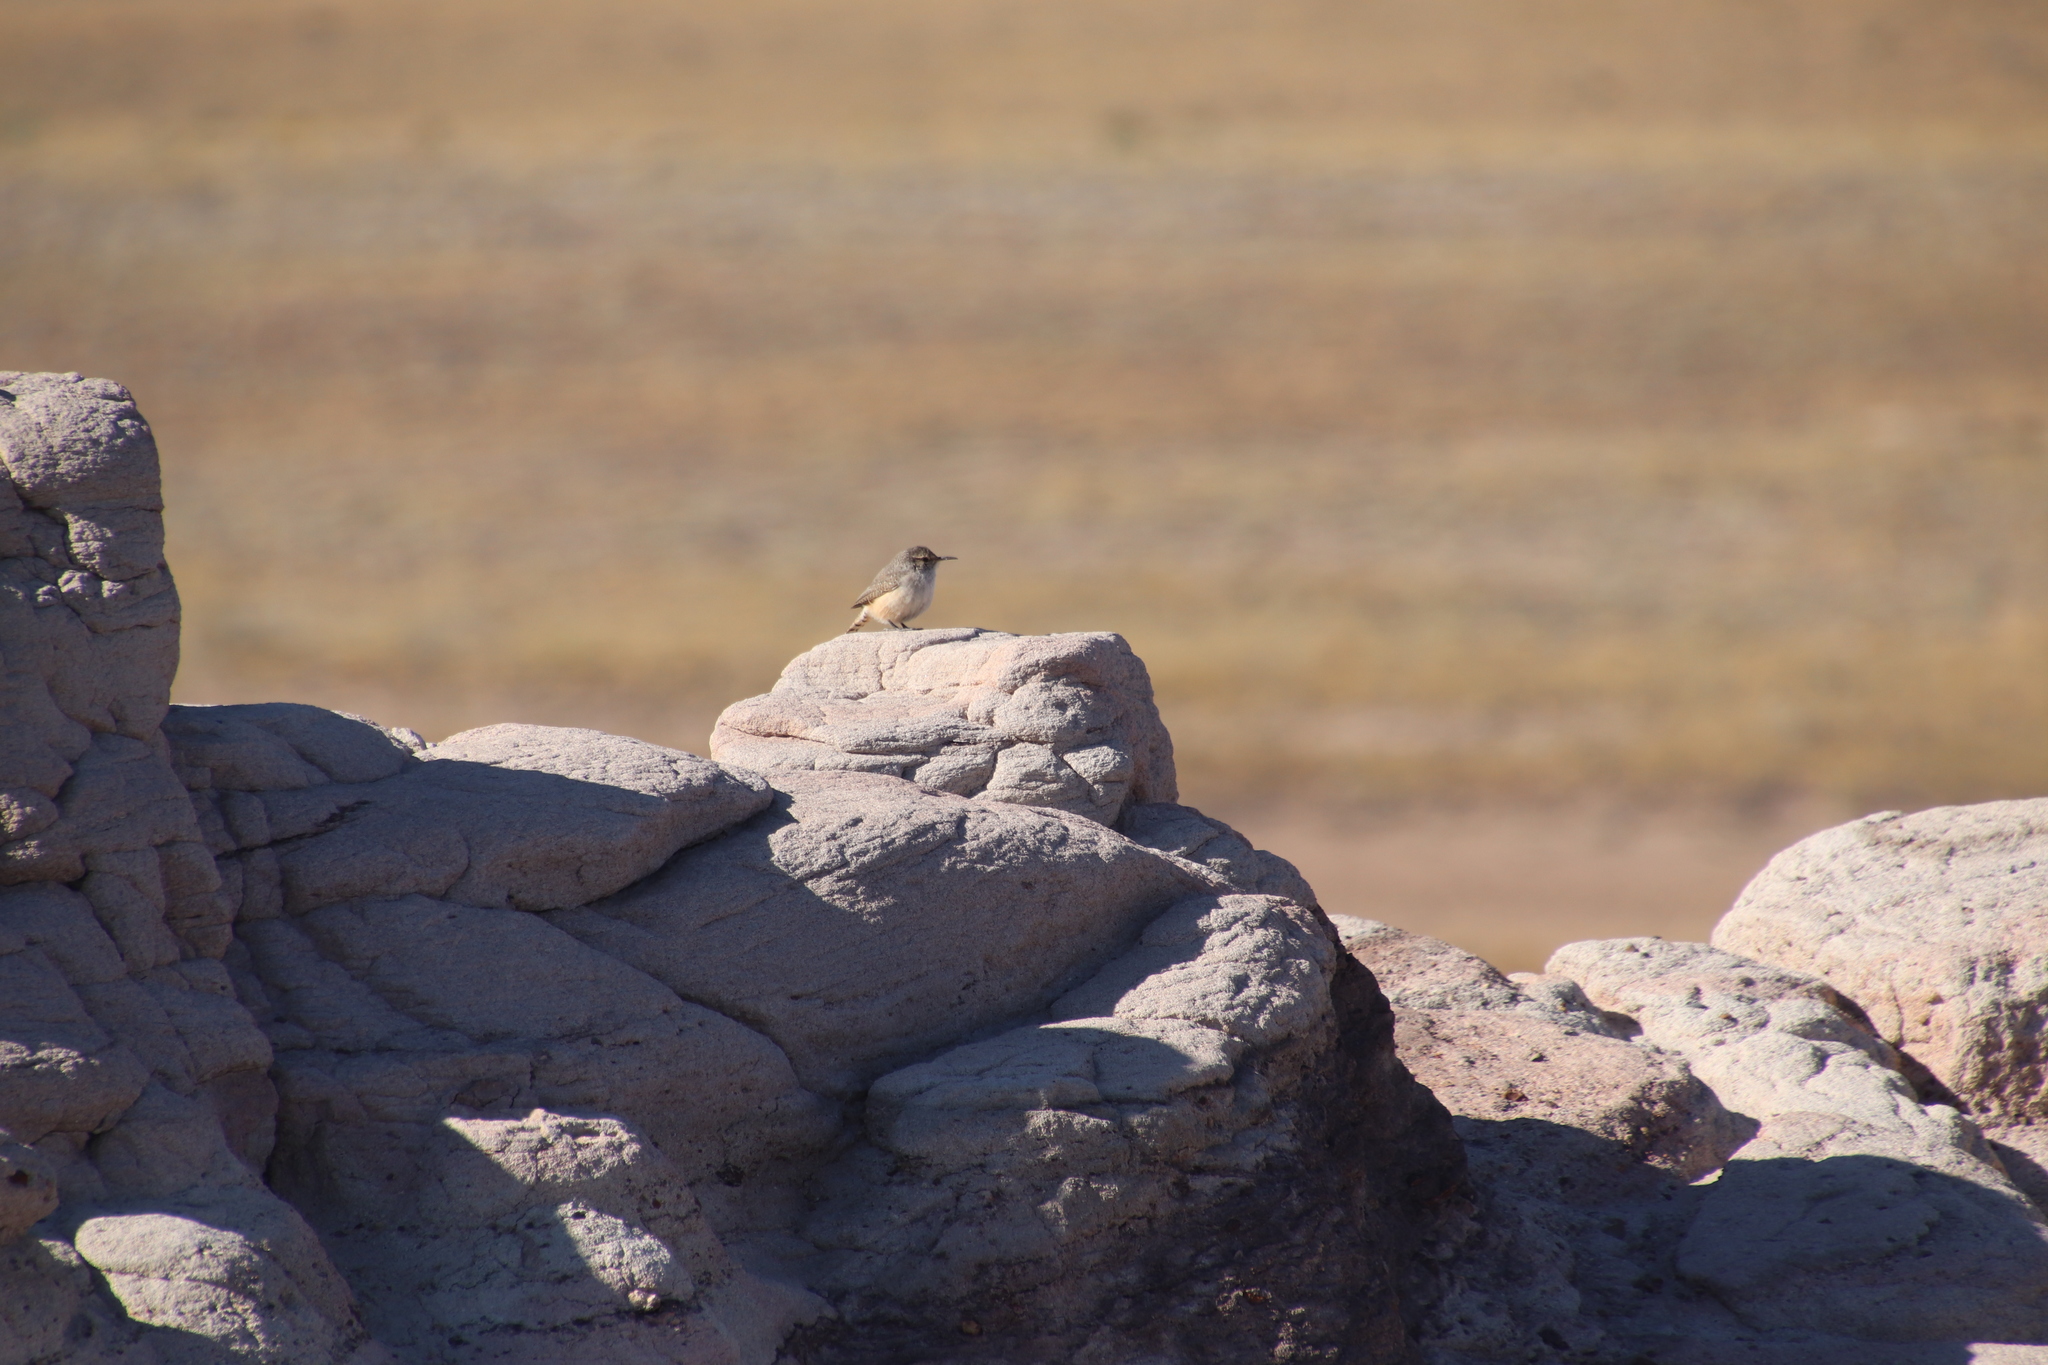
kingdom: Animalia
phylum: Chordata
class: Aves
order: Passeriformes
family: Troglodytidae
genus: Salpinctes
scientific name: Salpinctes obsoletus
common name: Rock wren
